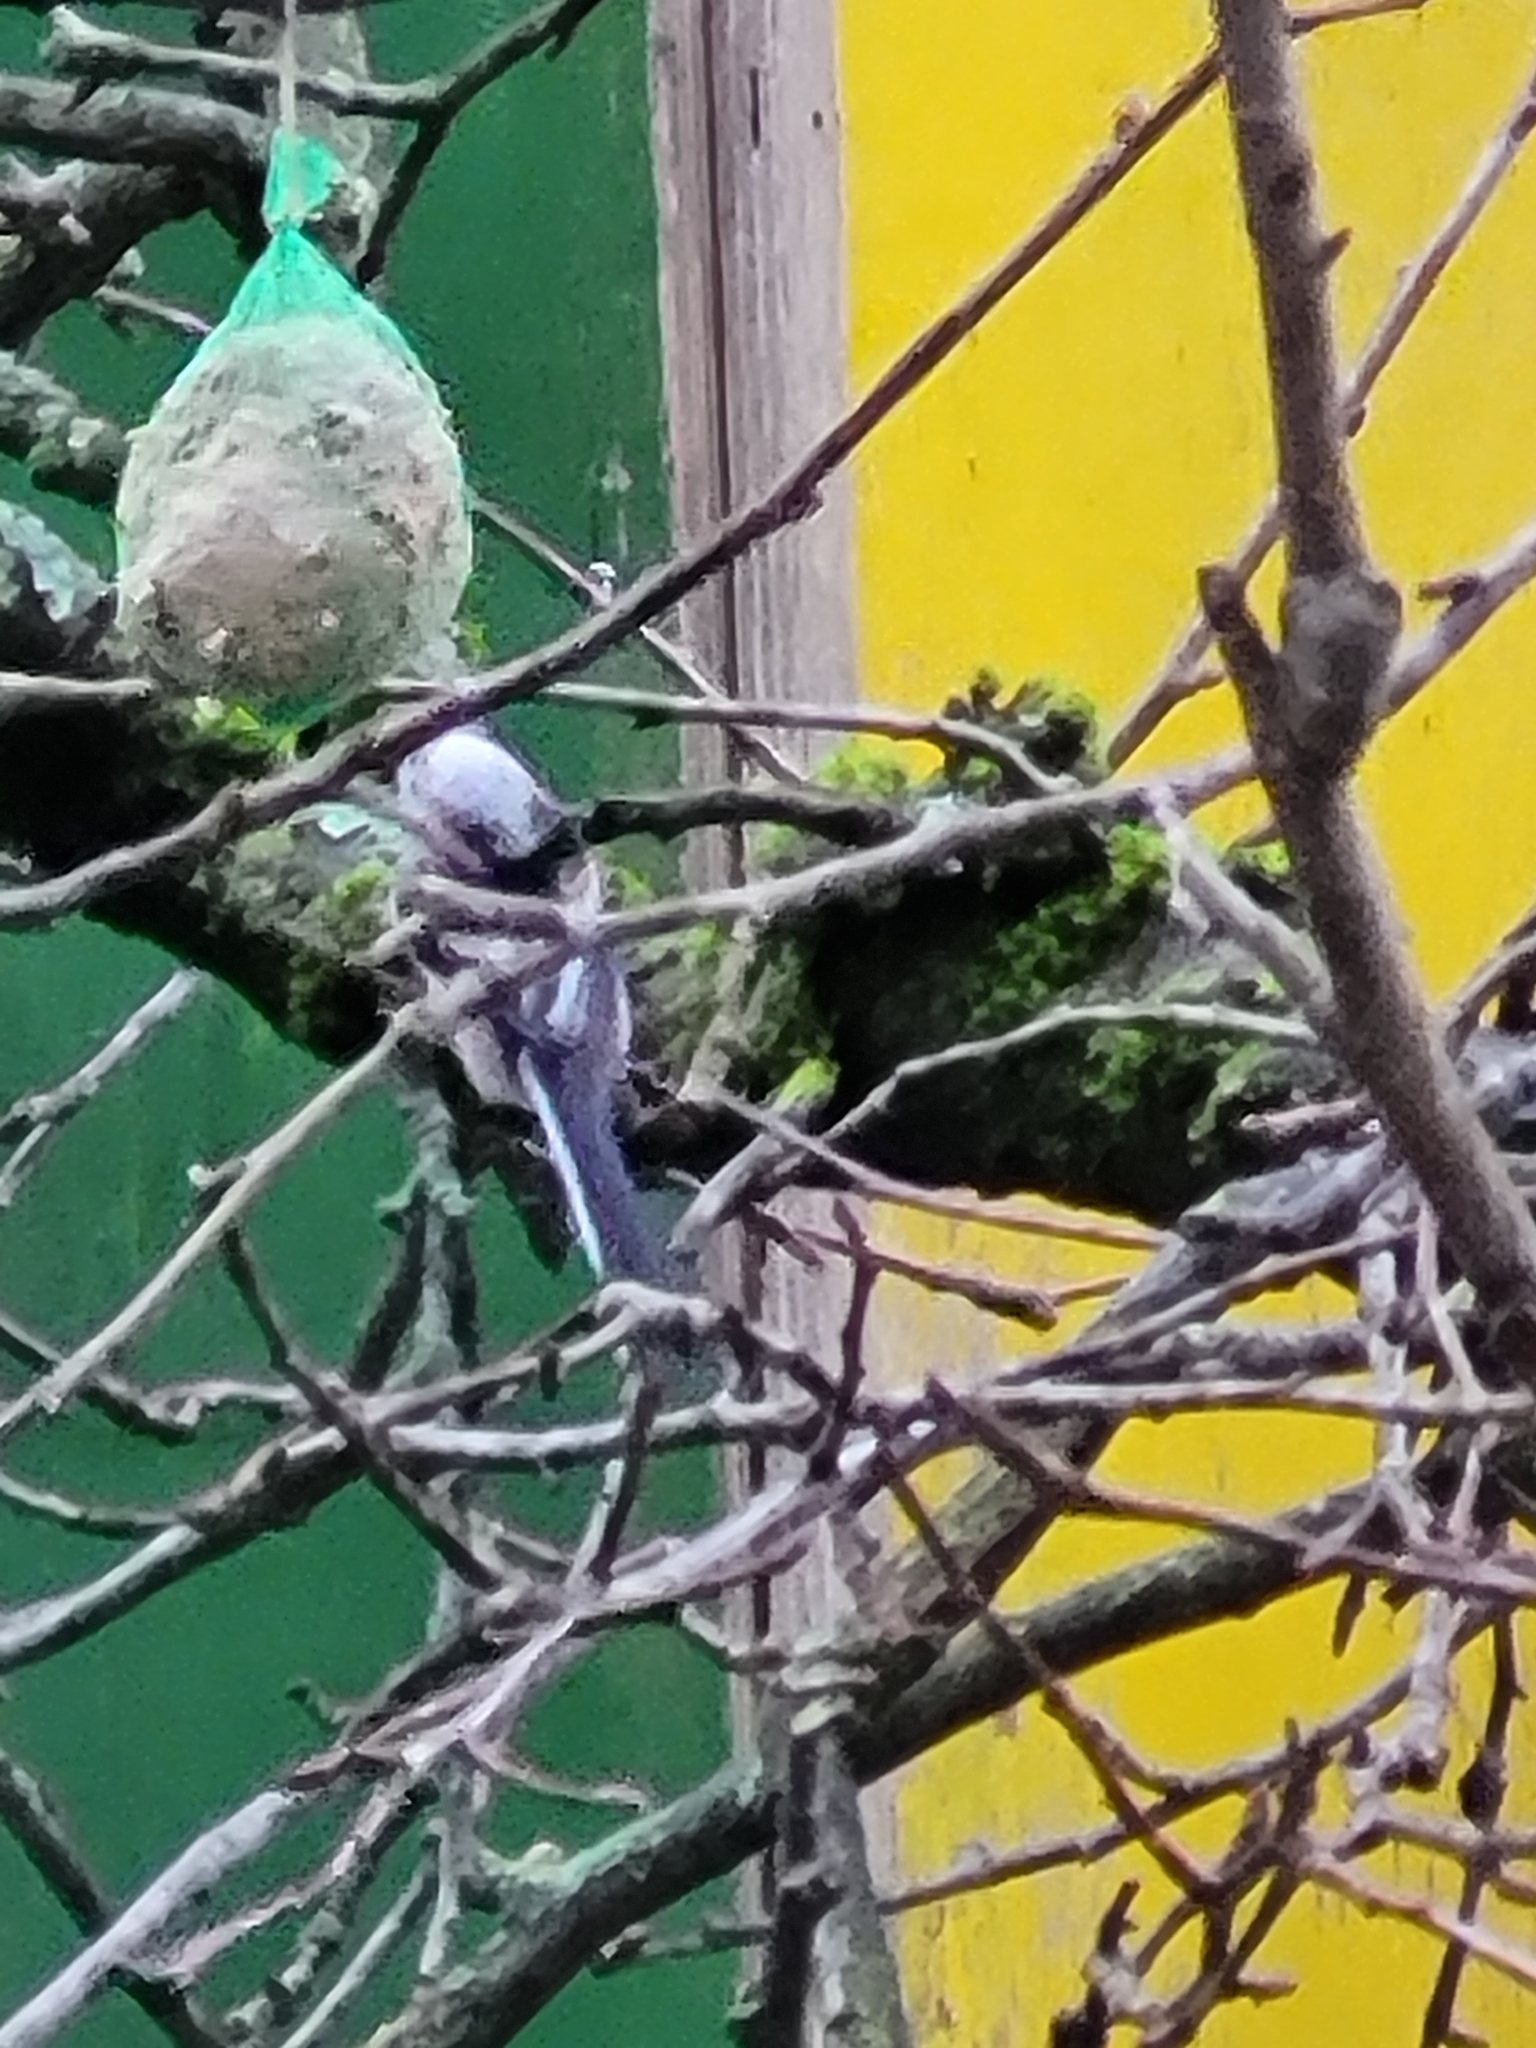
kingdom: Animalia
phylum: Chordata
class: Aves
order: Passeriformes
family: Aegithalidae
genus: Aegithalos
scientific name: Aegithalos caudatus
